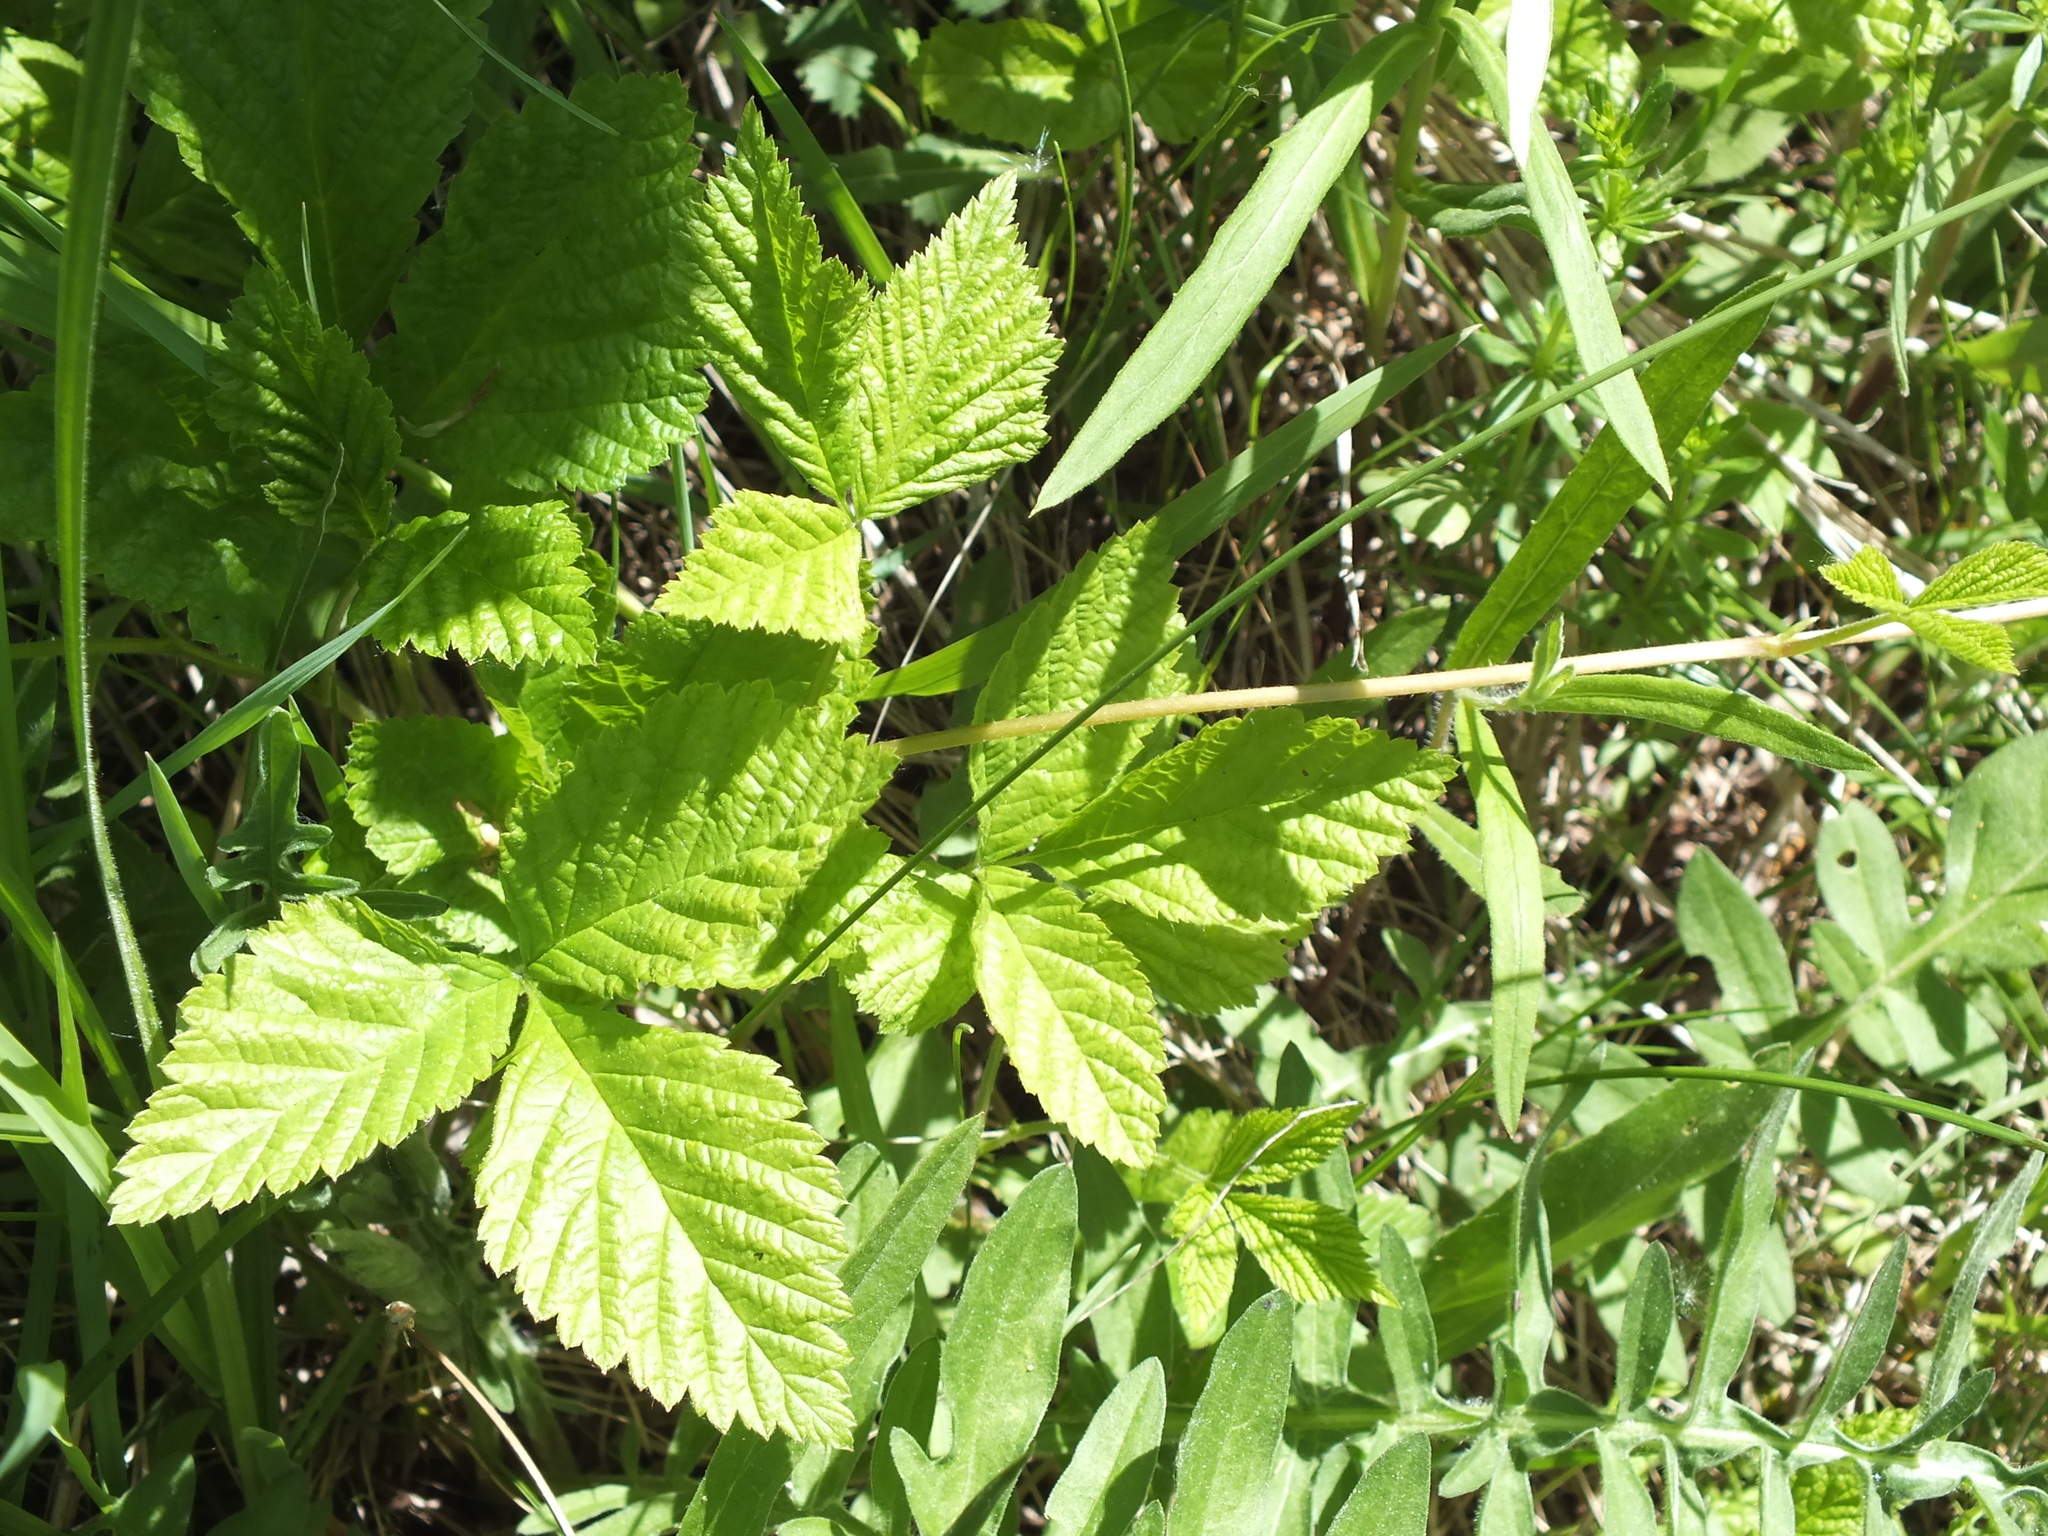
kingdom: Plantae
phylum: Tracheophyta
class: Magnoliopsida
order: Rosales
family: Rosaceae
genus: Rubus
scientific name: Rubus saxatilis
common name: Stone bramble
